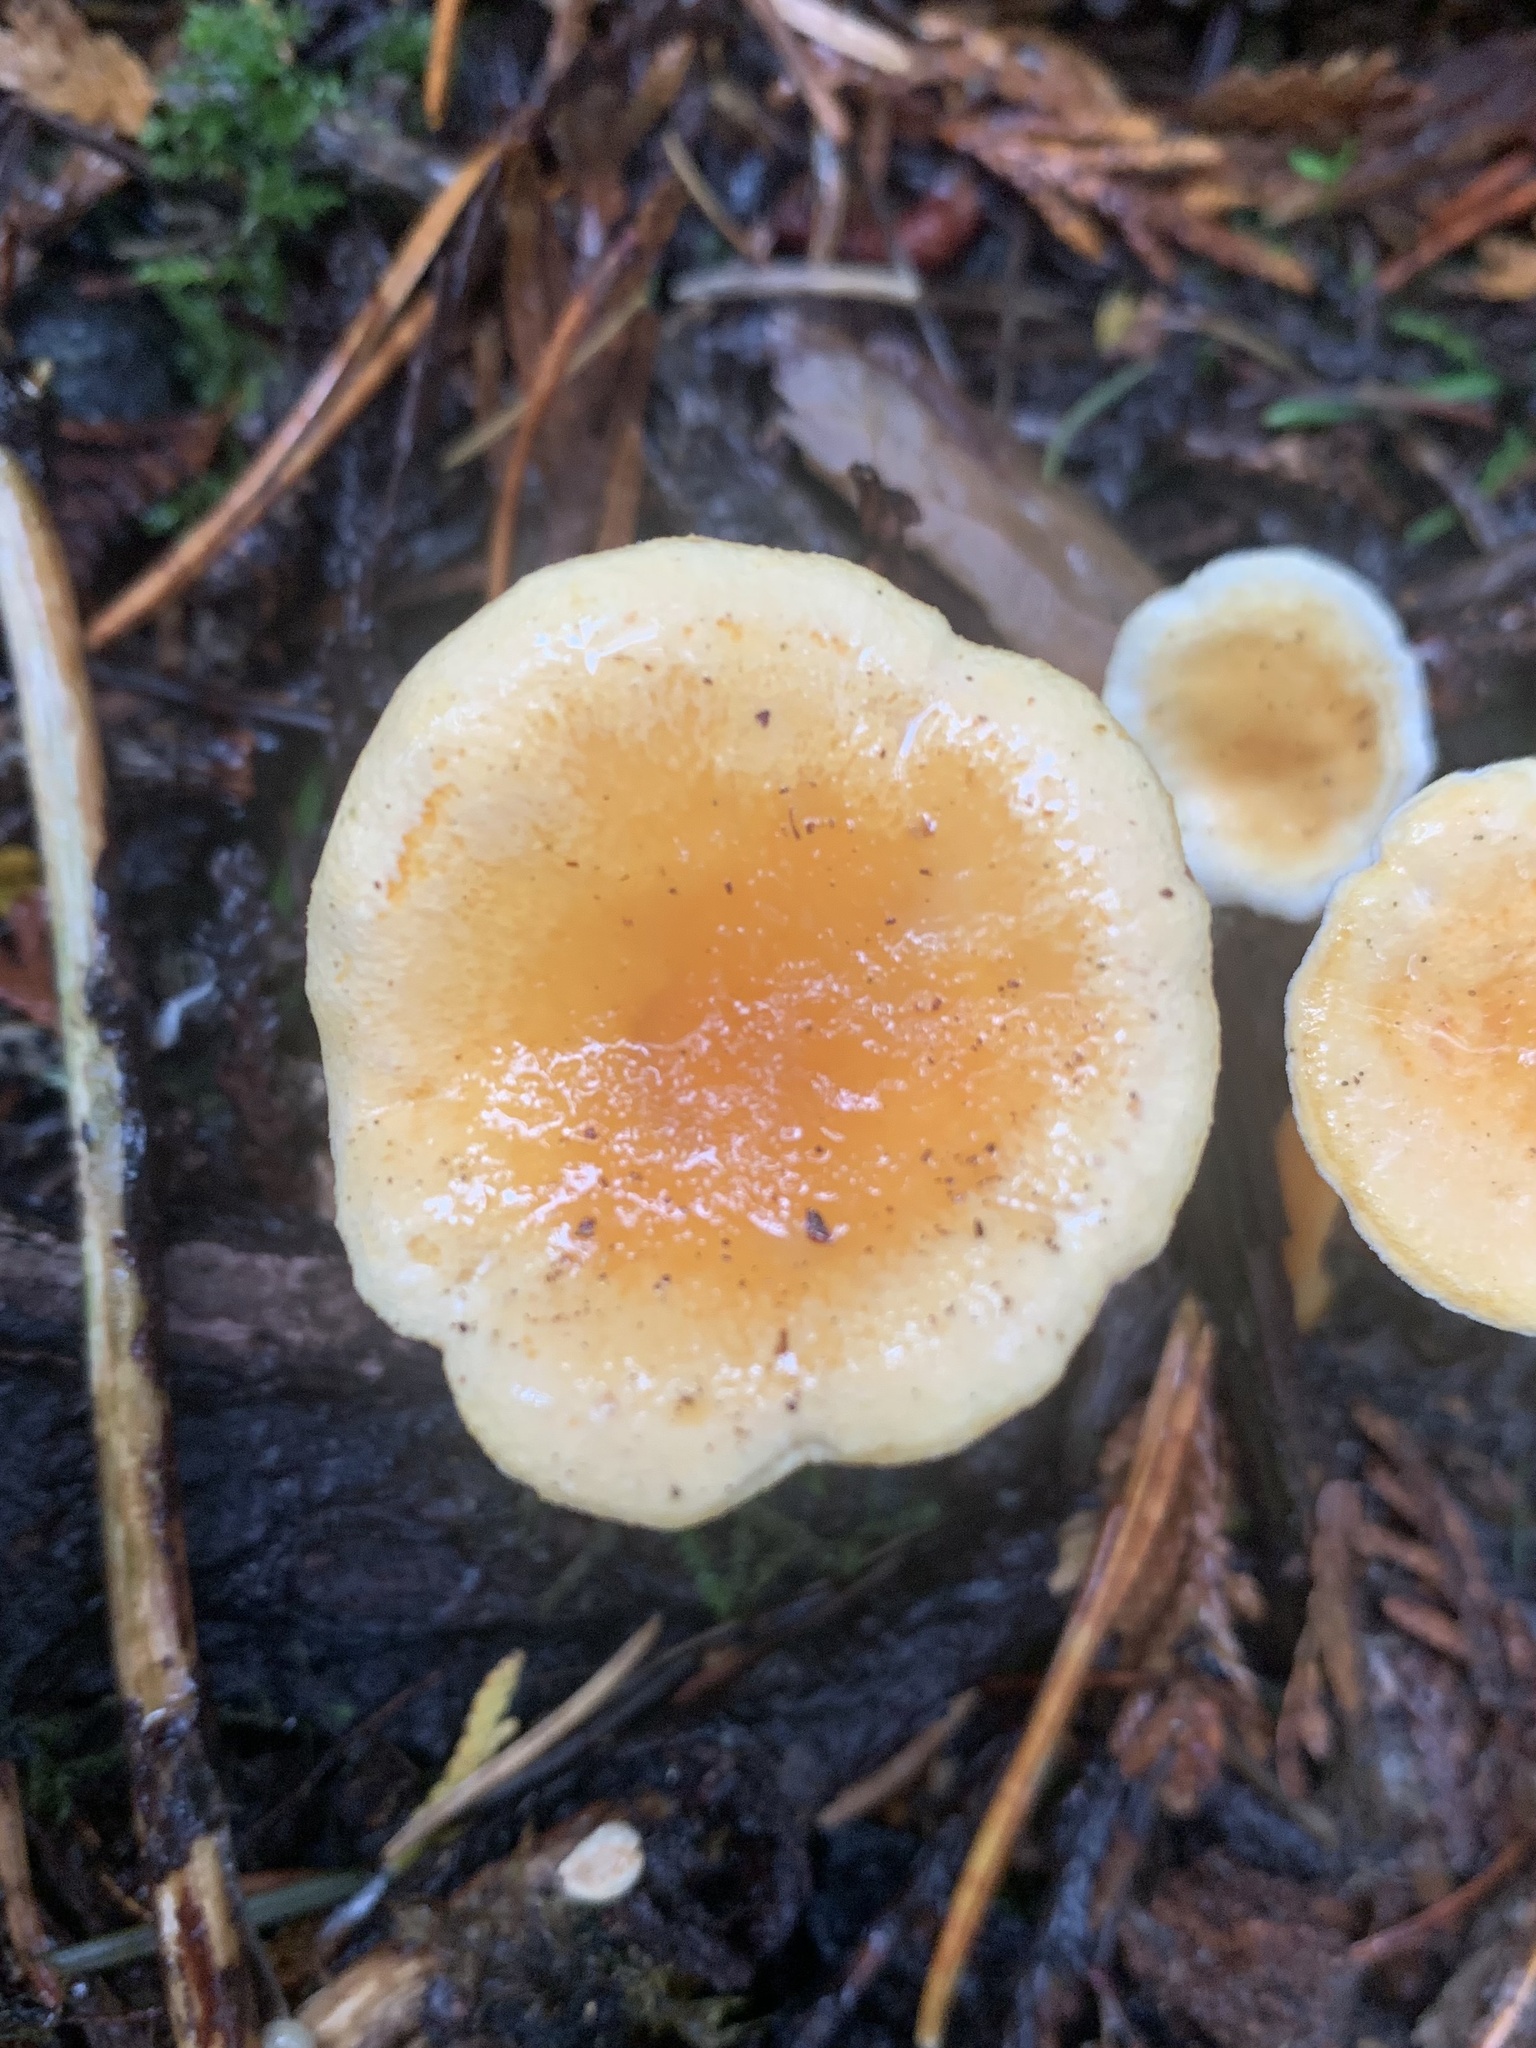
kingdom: Fungi
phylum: Basidiomycota
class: Agaricomycetes
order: Boletales
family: Hygrophoropsidaceae
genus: Hygrophoropsis
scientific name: Hygrophoropsis aurantiaca
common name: False chanterelle
